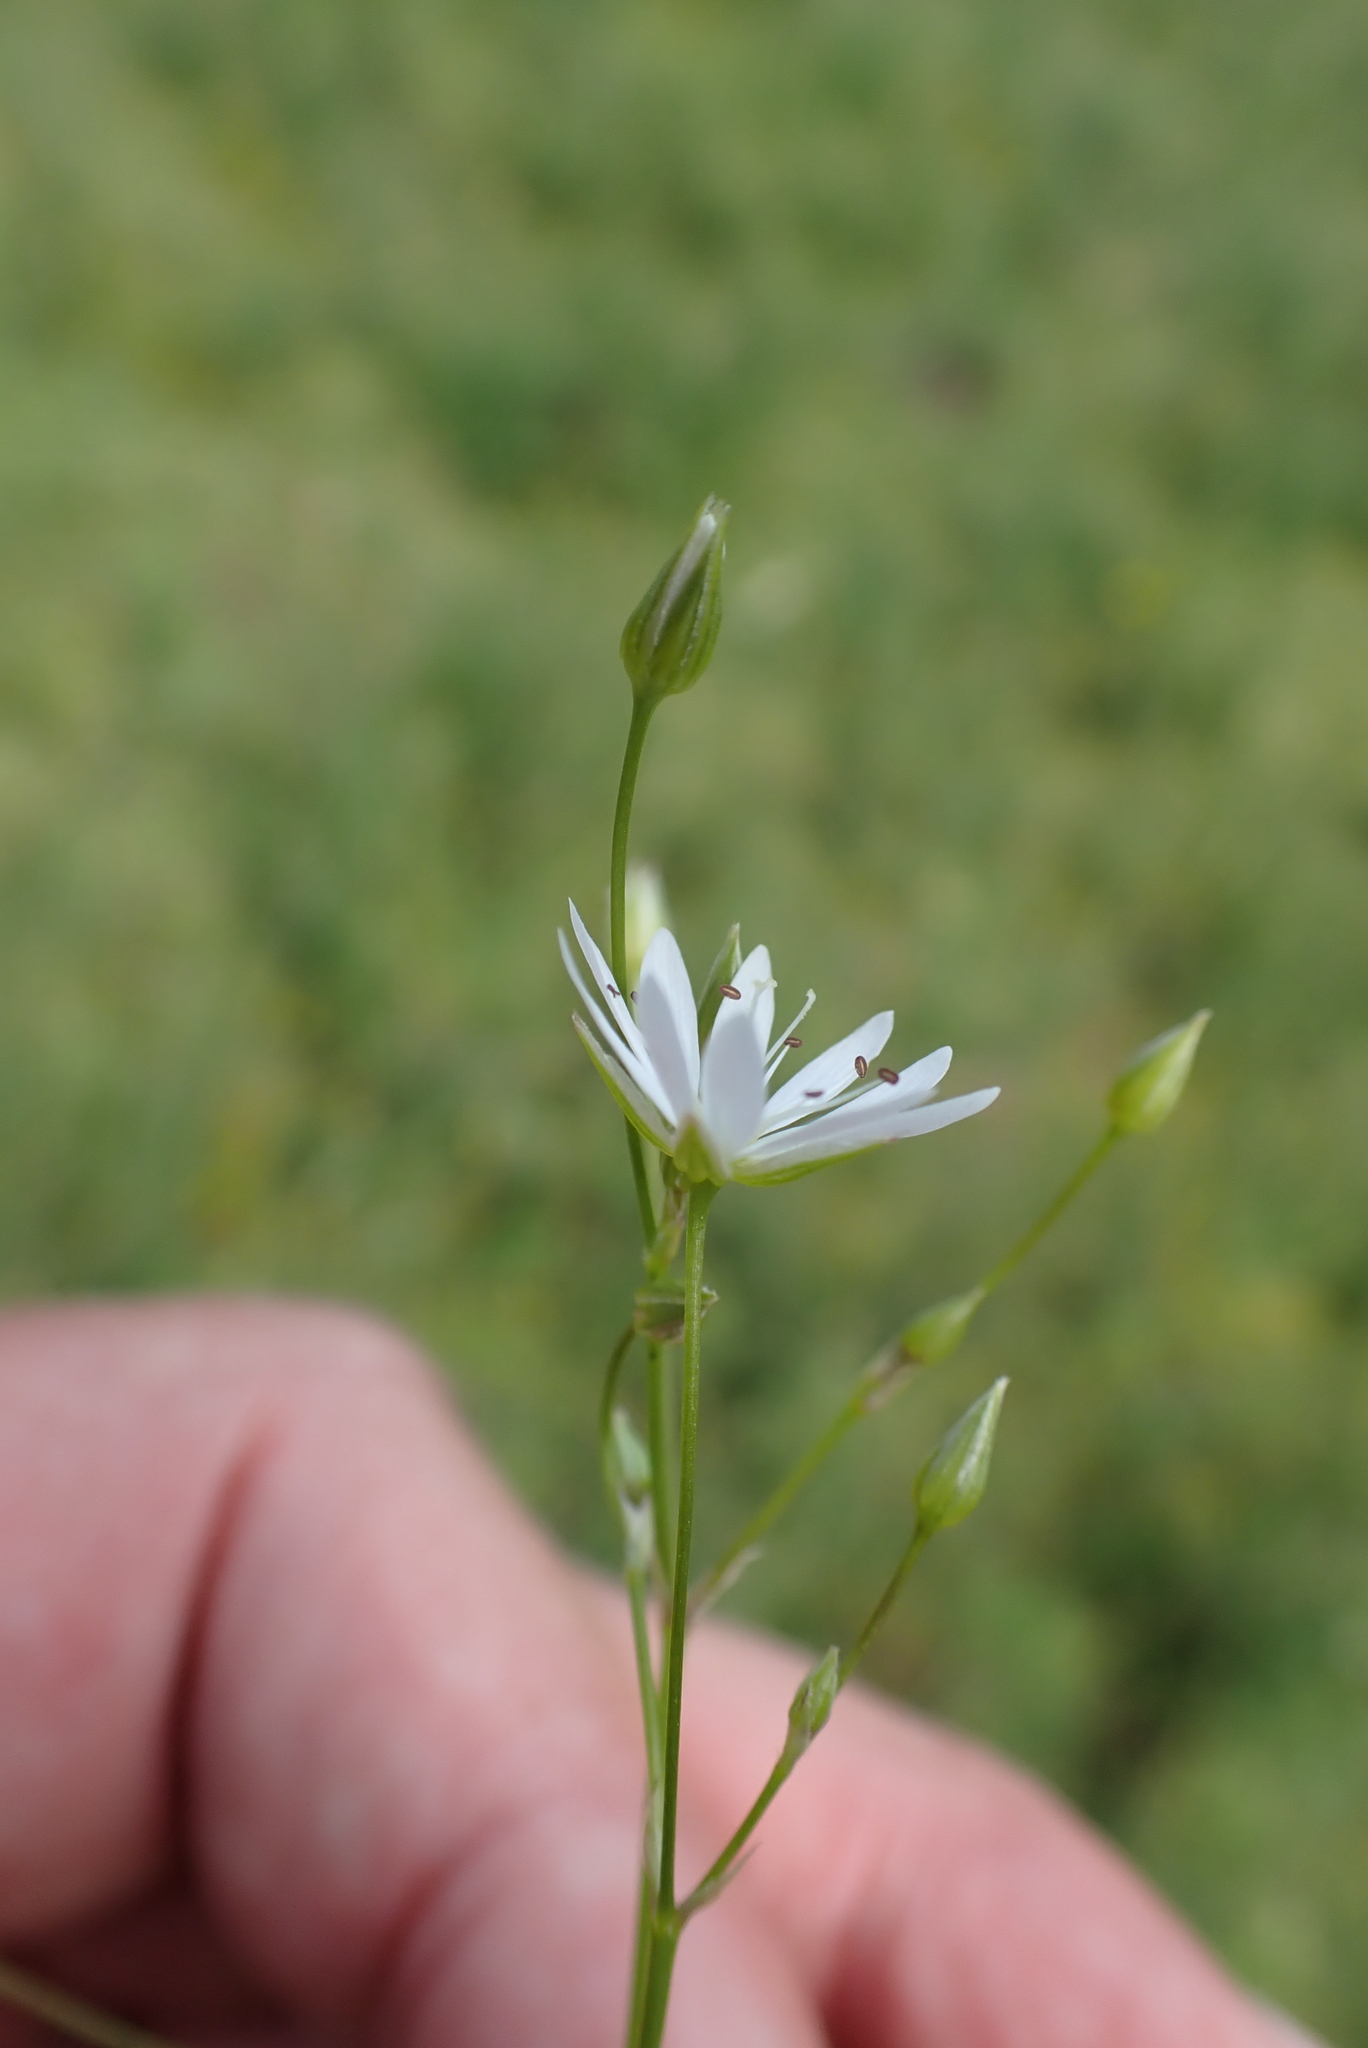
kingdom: Plantae
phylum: Tracheophyta
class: Magnoliopsida
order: Caryophyllales
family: Caryophyllaceae
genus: Stellaria
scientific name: Stellaria graminea
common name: Grass-like starwort
